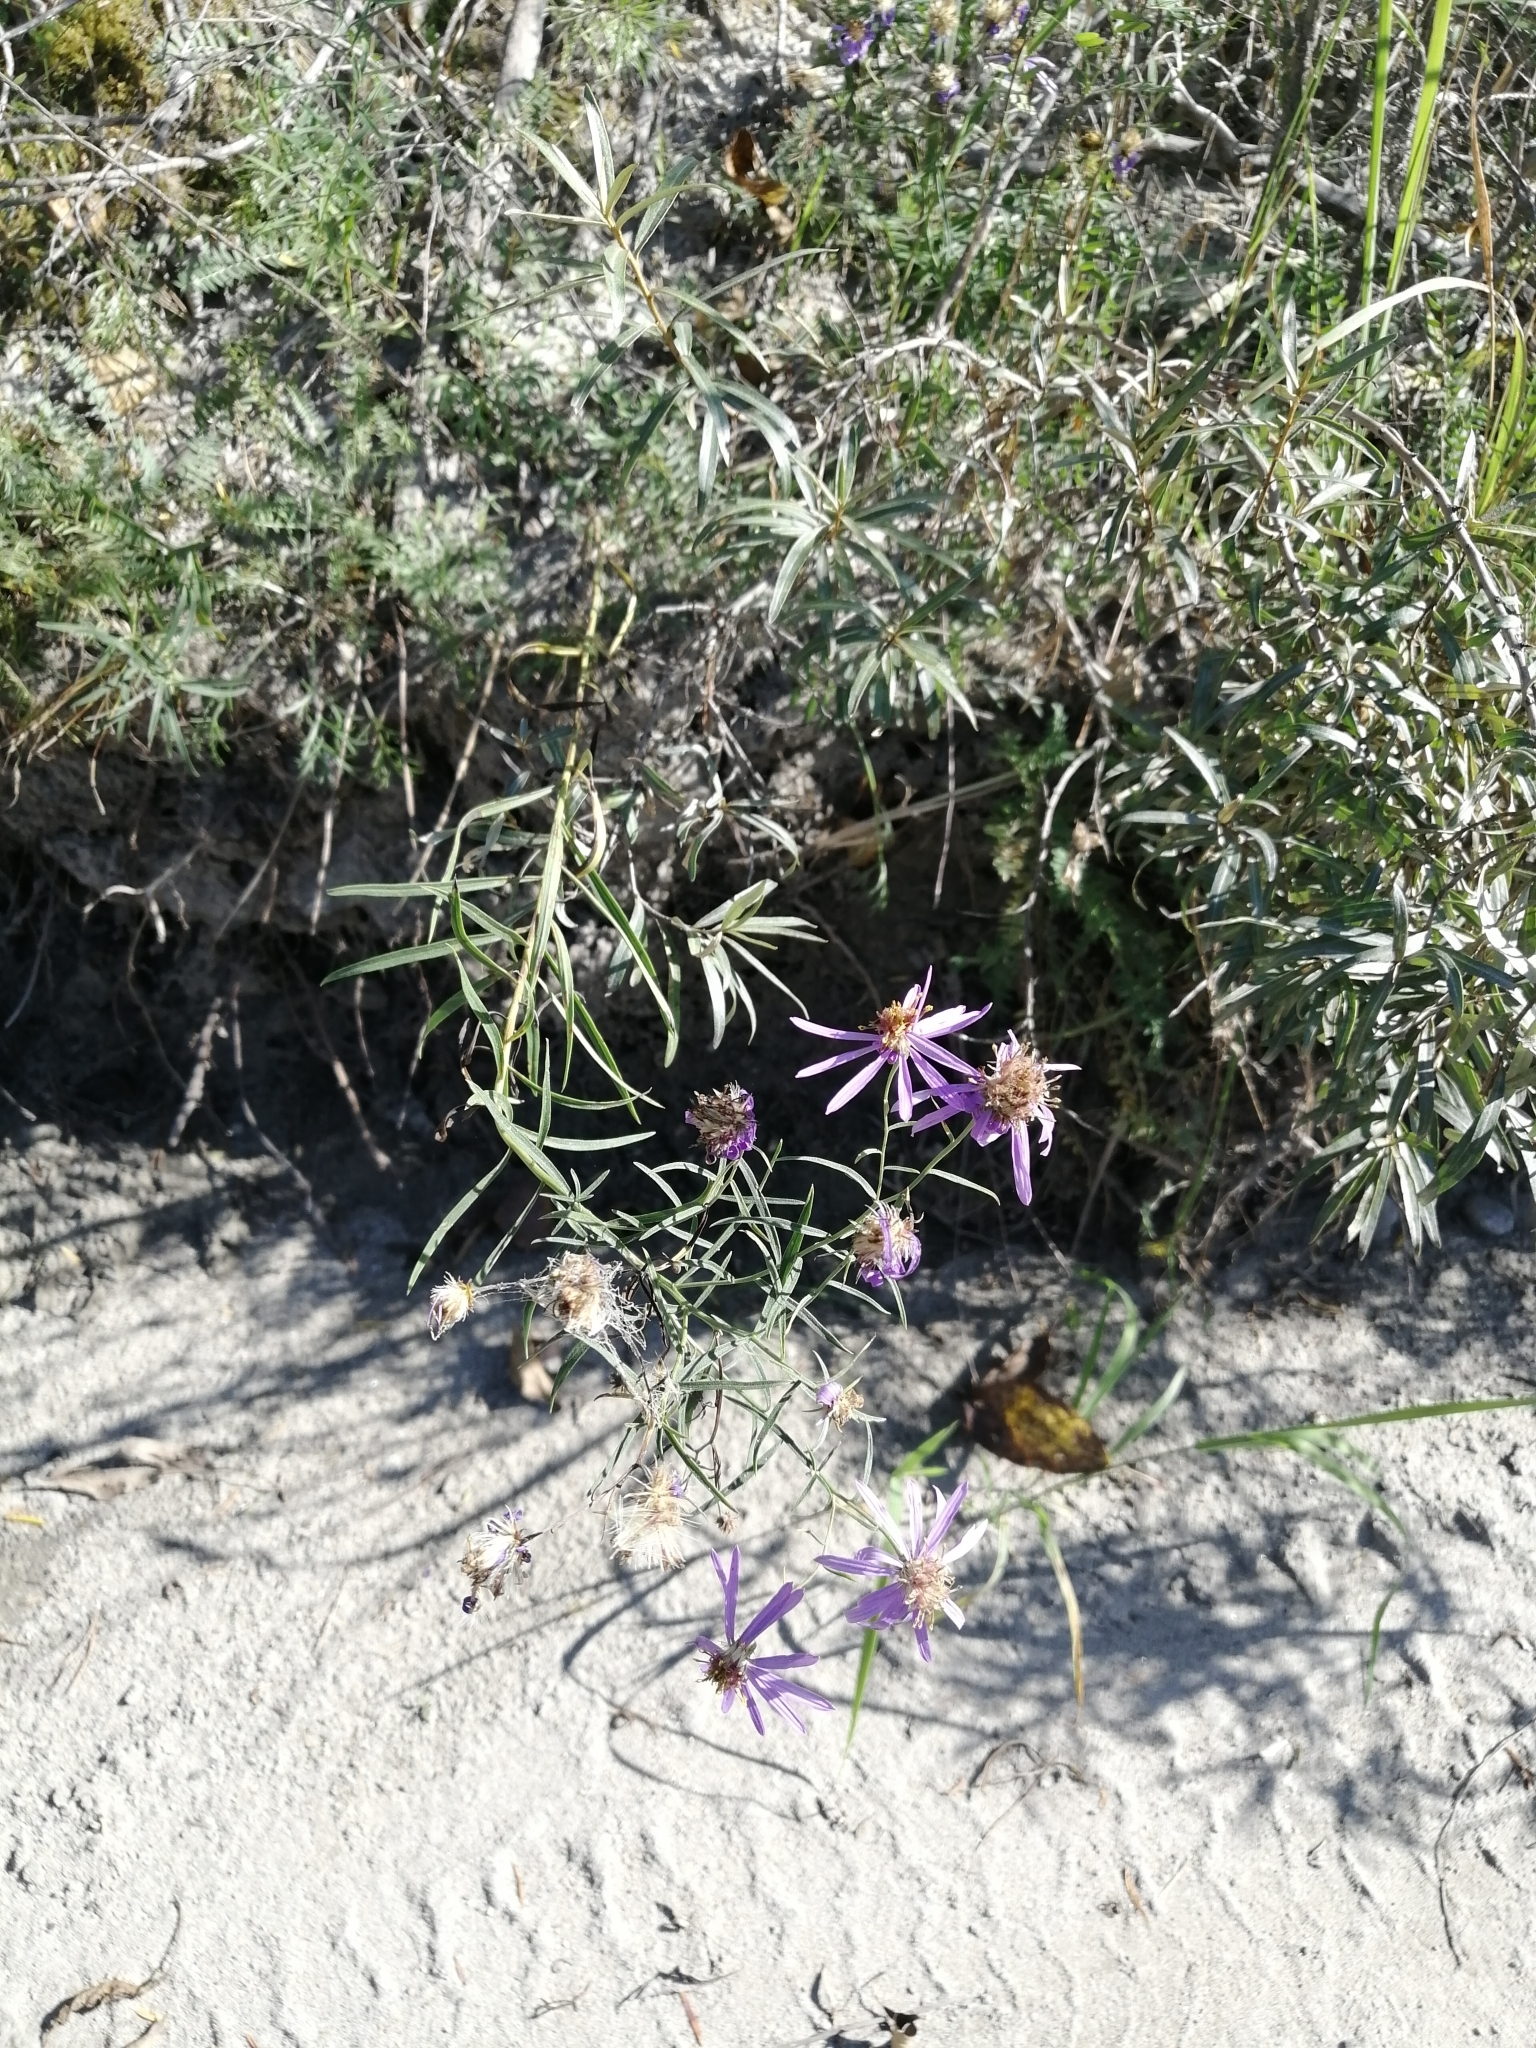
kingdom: Plantae
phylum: Tracheophyta
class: Magnoliopsida
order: Asterales
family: Asteraceae
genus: Galatella
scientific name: Galatella dahurica
